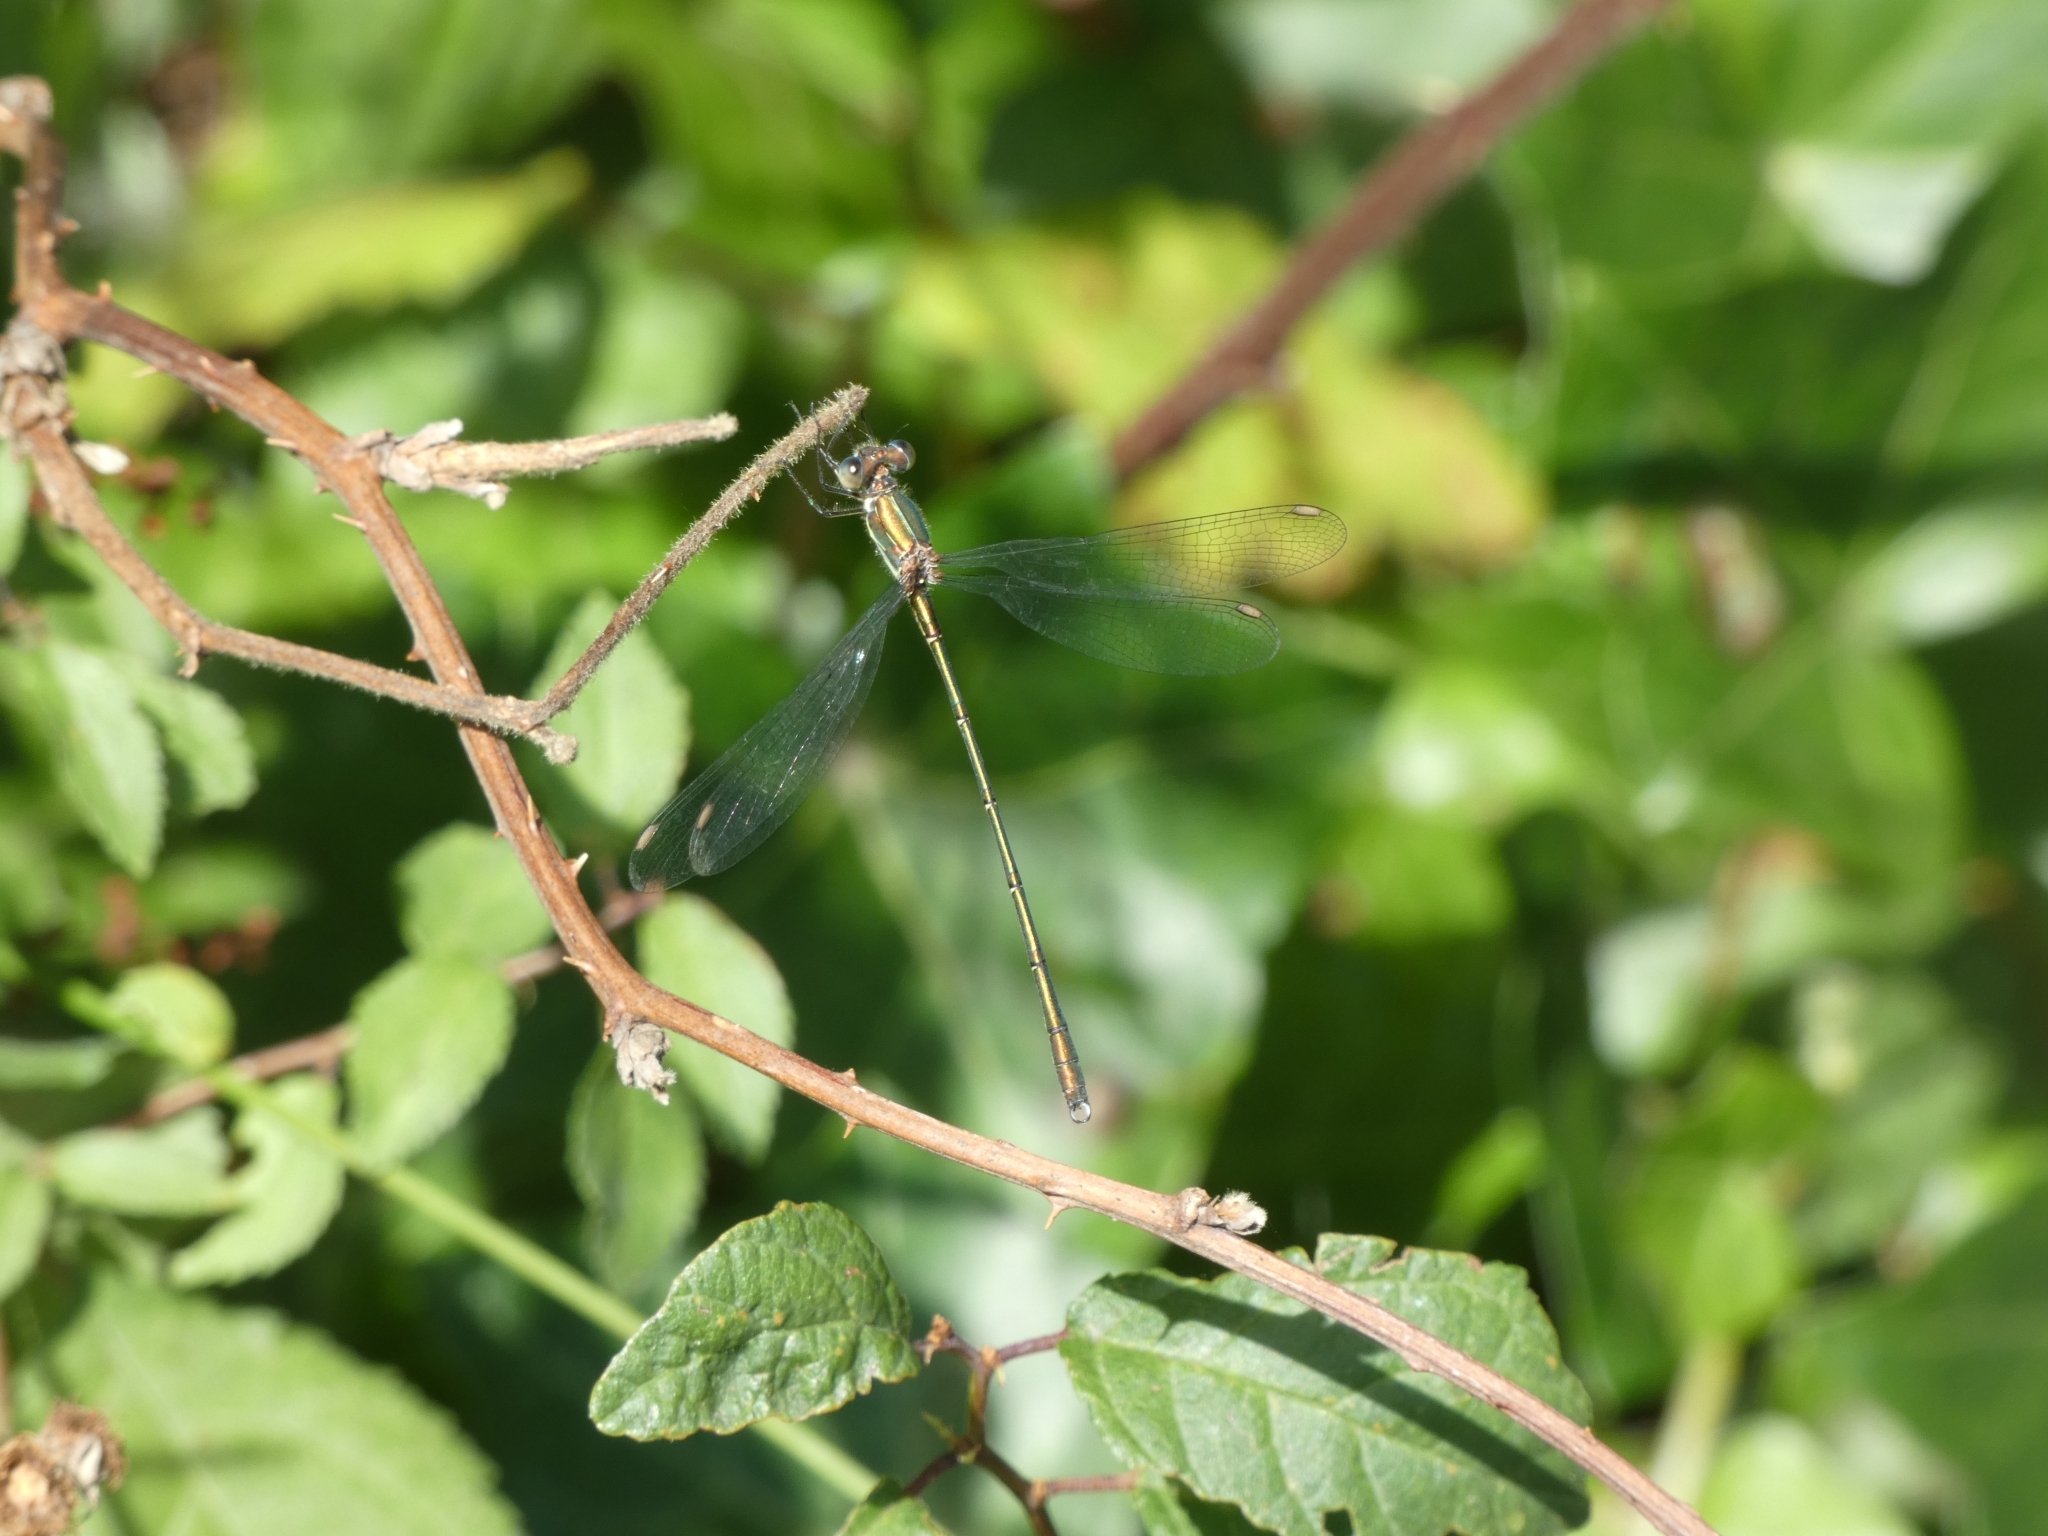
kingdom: Animalia
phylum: Arthropoda
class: Insecta
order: Odonata
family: Lestidae
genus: Chalcolestes
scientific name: Chalcolestes viridis
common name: Green emerald damselfly
